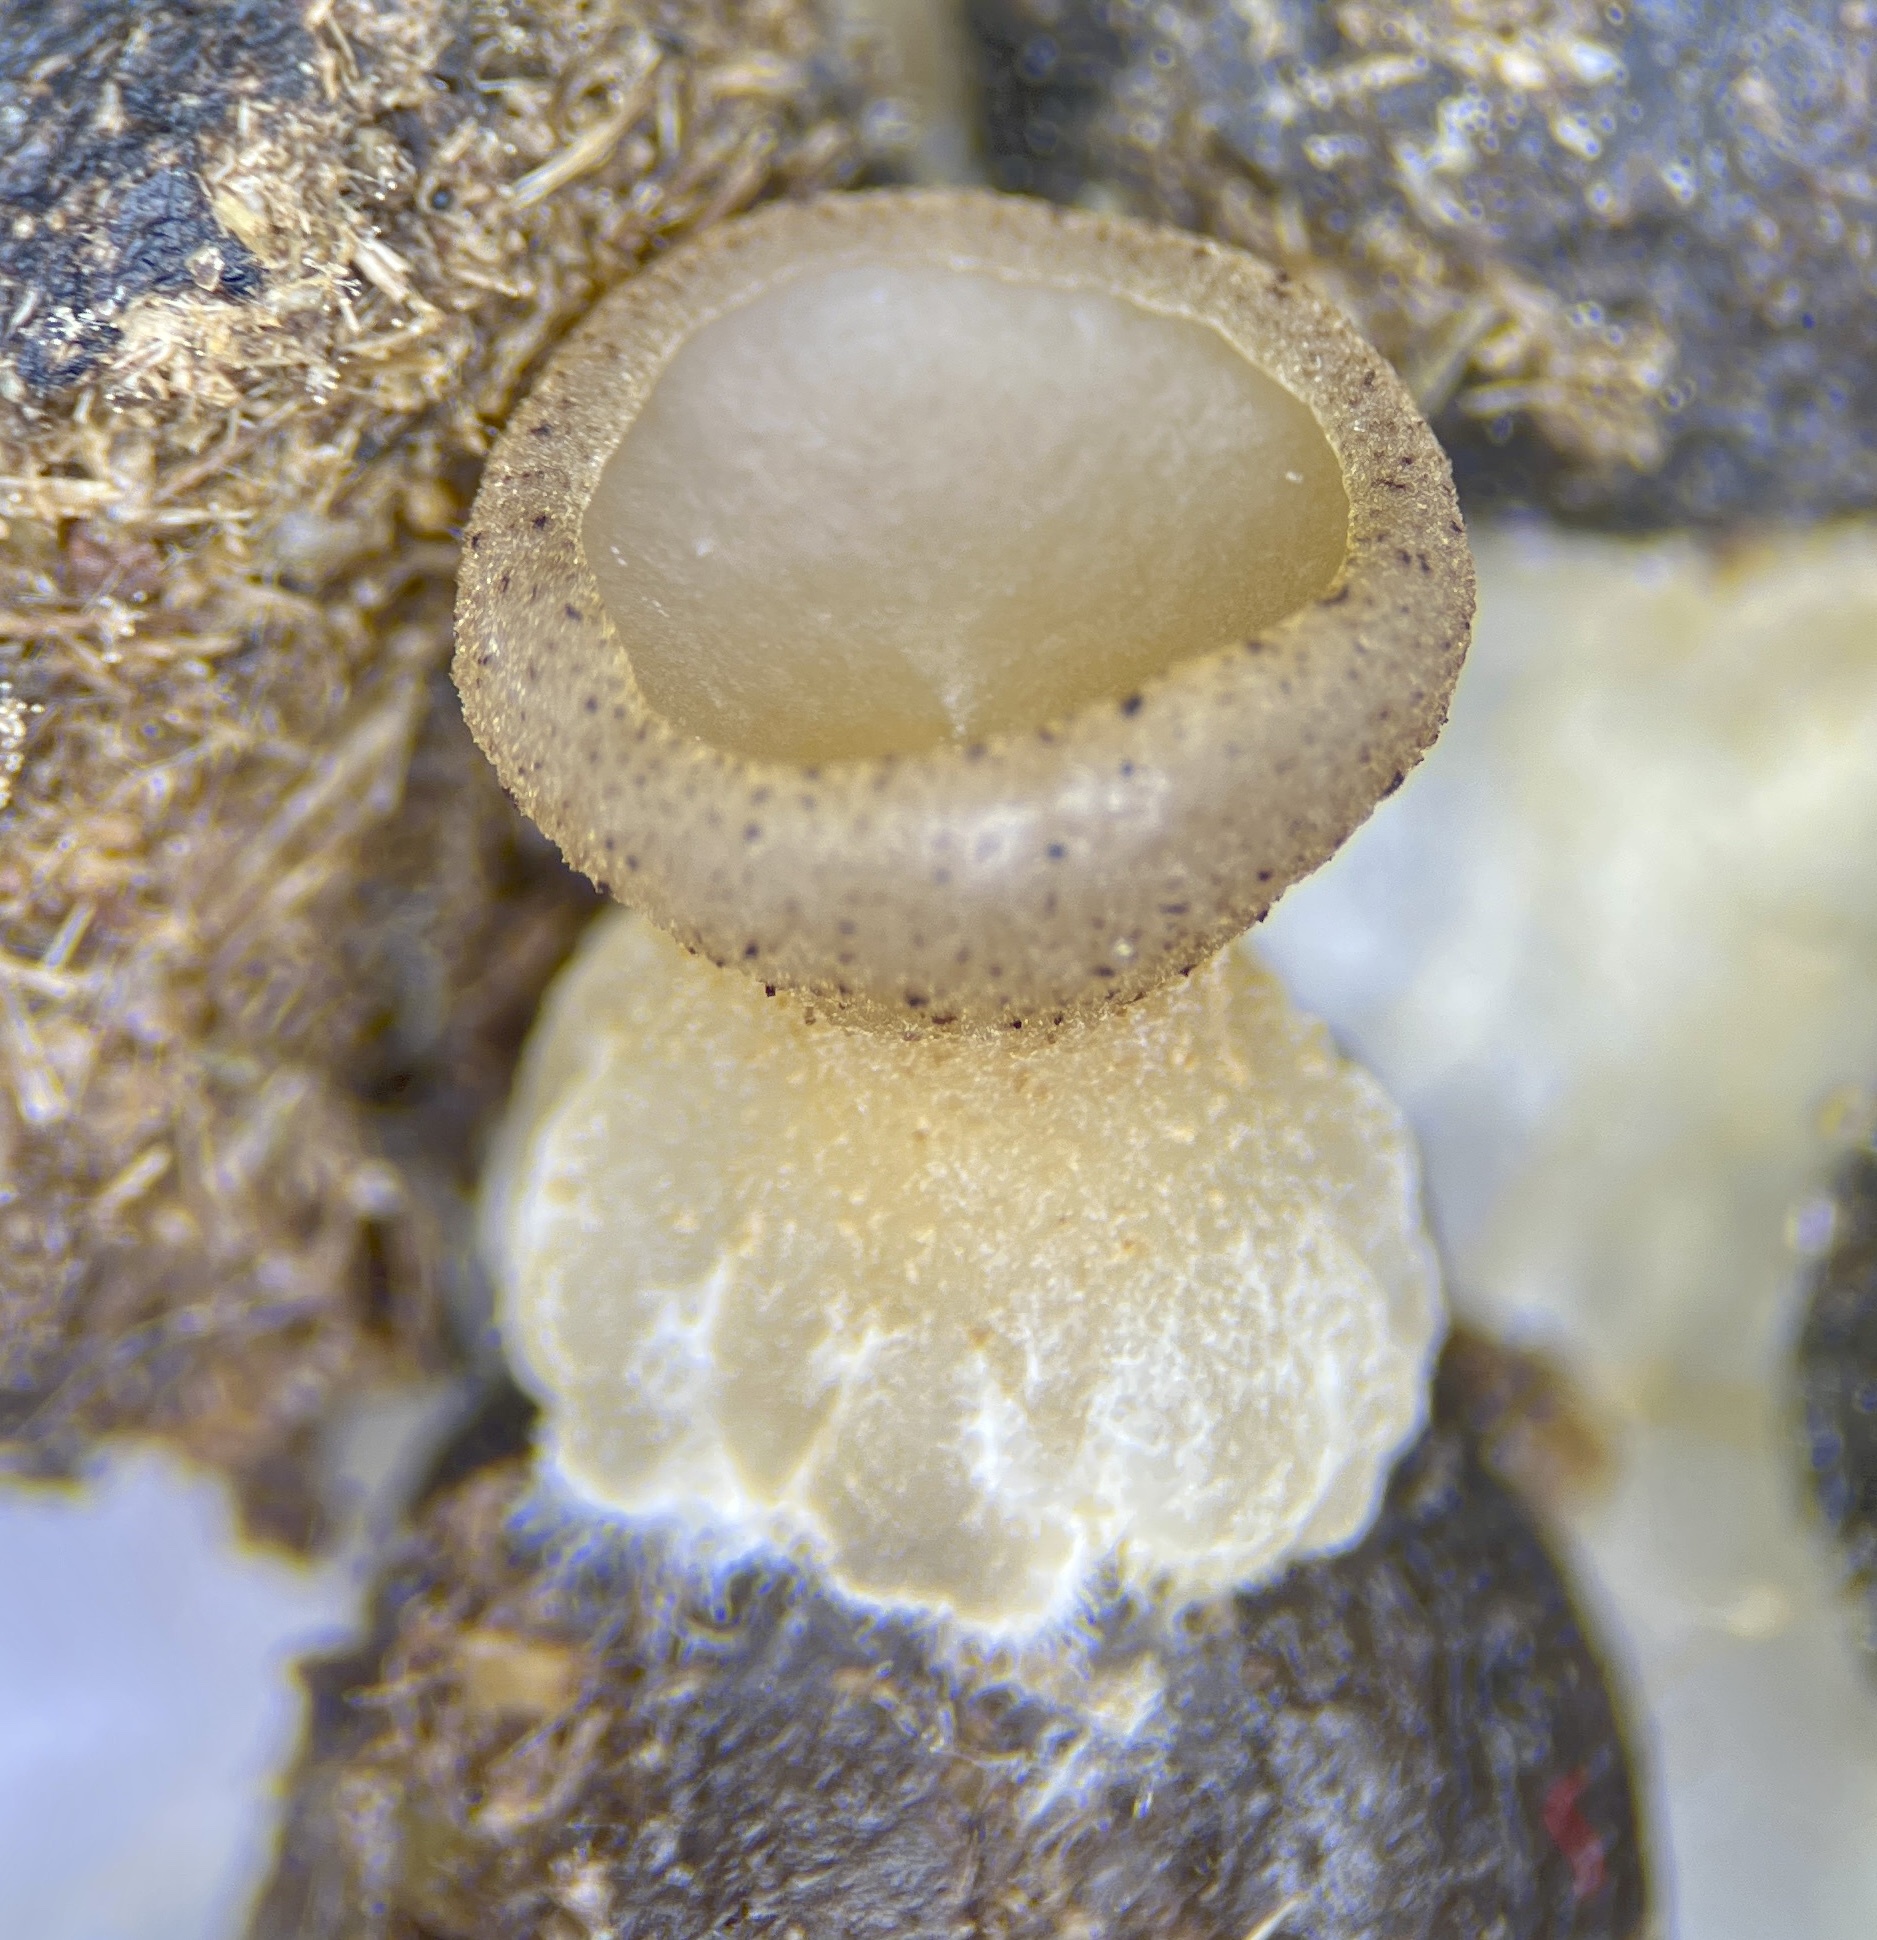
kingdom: Fungi
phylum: Ascomycota
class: Pezizomycetes
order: Pezizales
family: Pezizaceae
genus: Peziza
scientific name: Peziza fimeti
